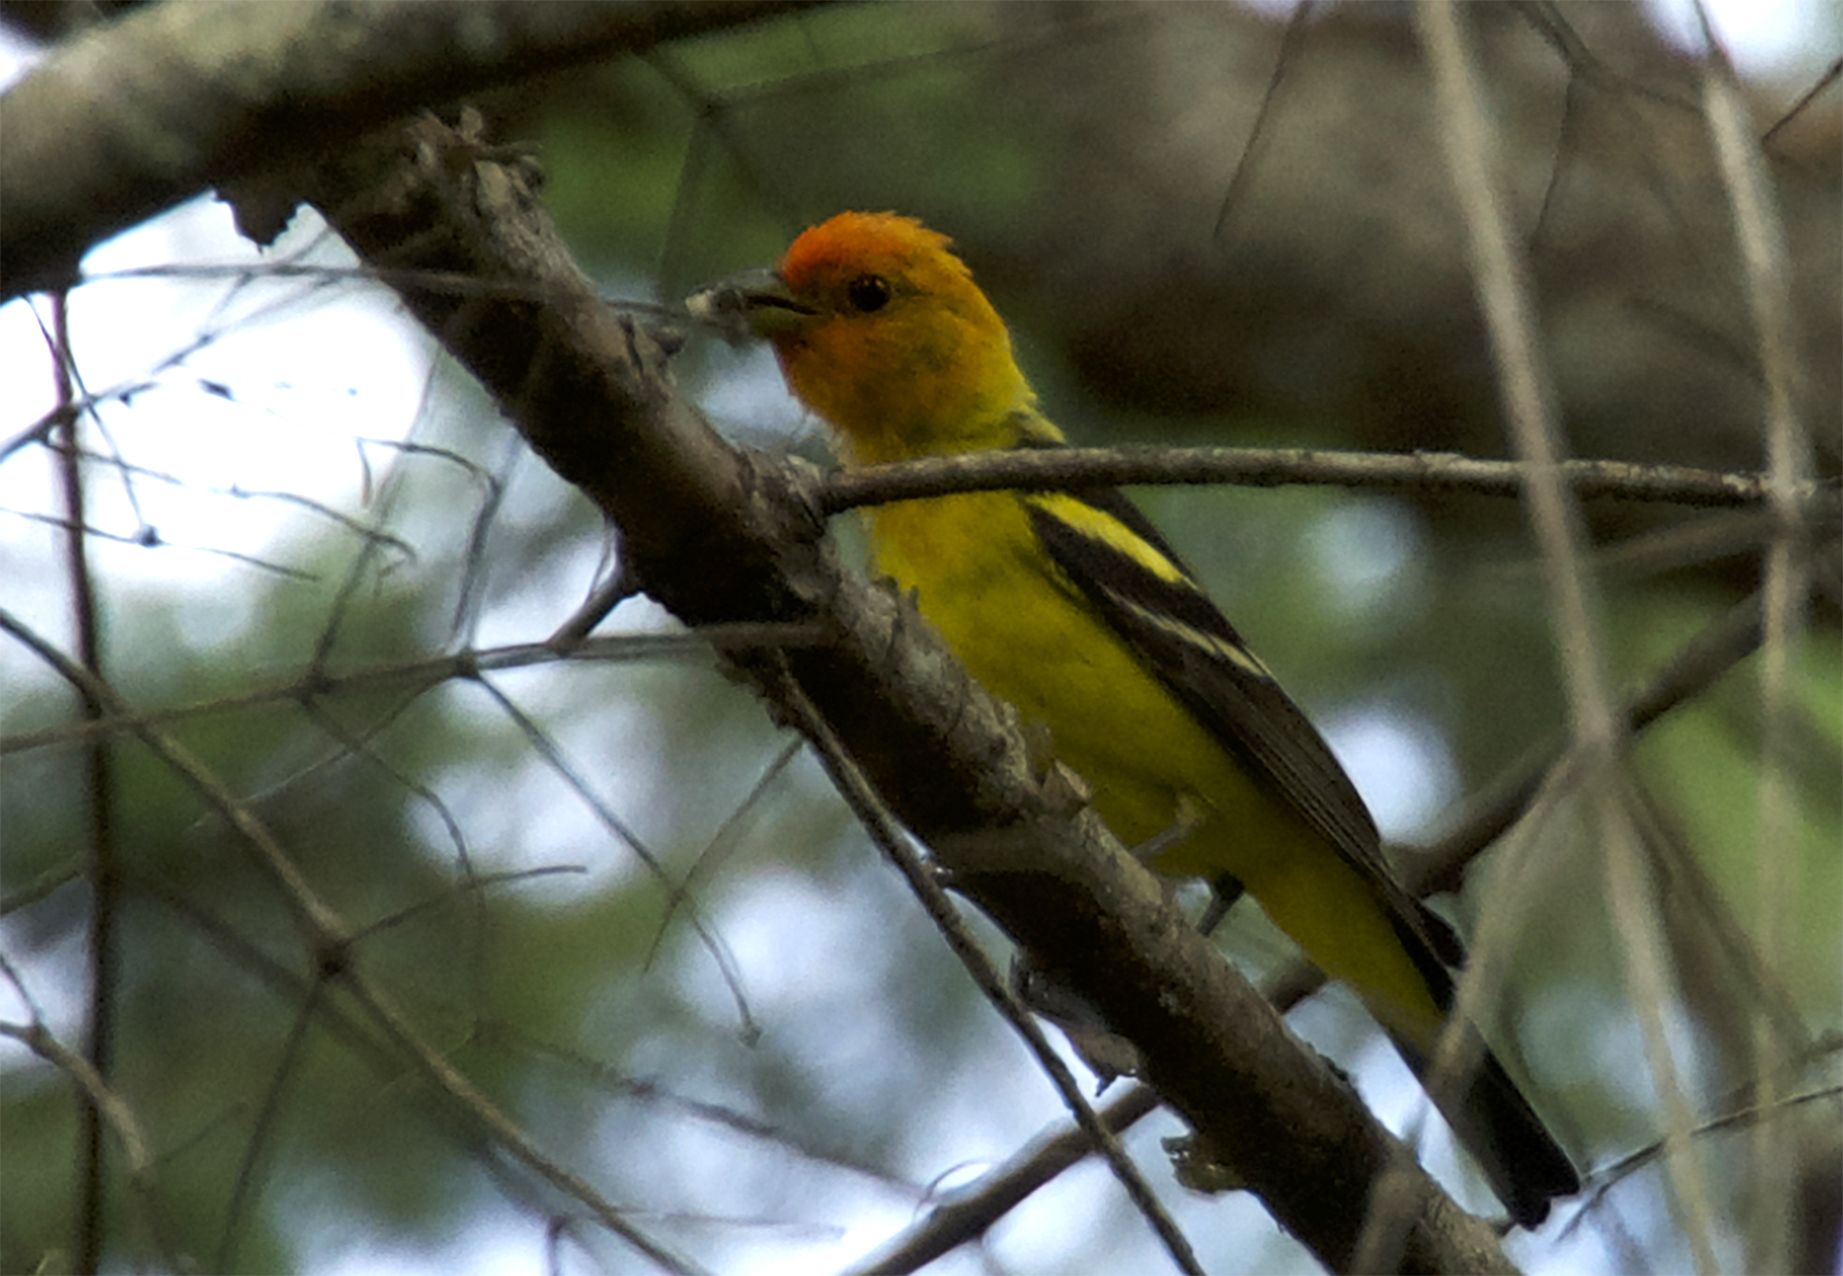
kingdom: Animalia
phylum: Chordata
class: Aves
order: Passeriformes
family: Cardinalidae
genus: Piranga
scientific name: Piranga ludoviciana
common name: Western tanager
